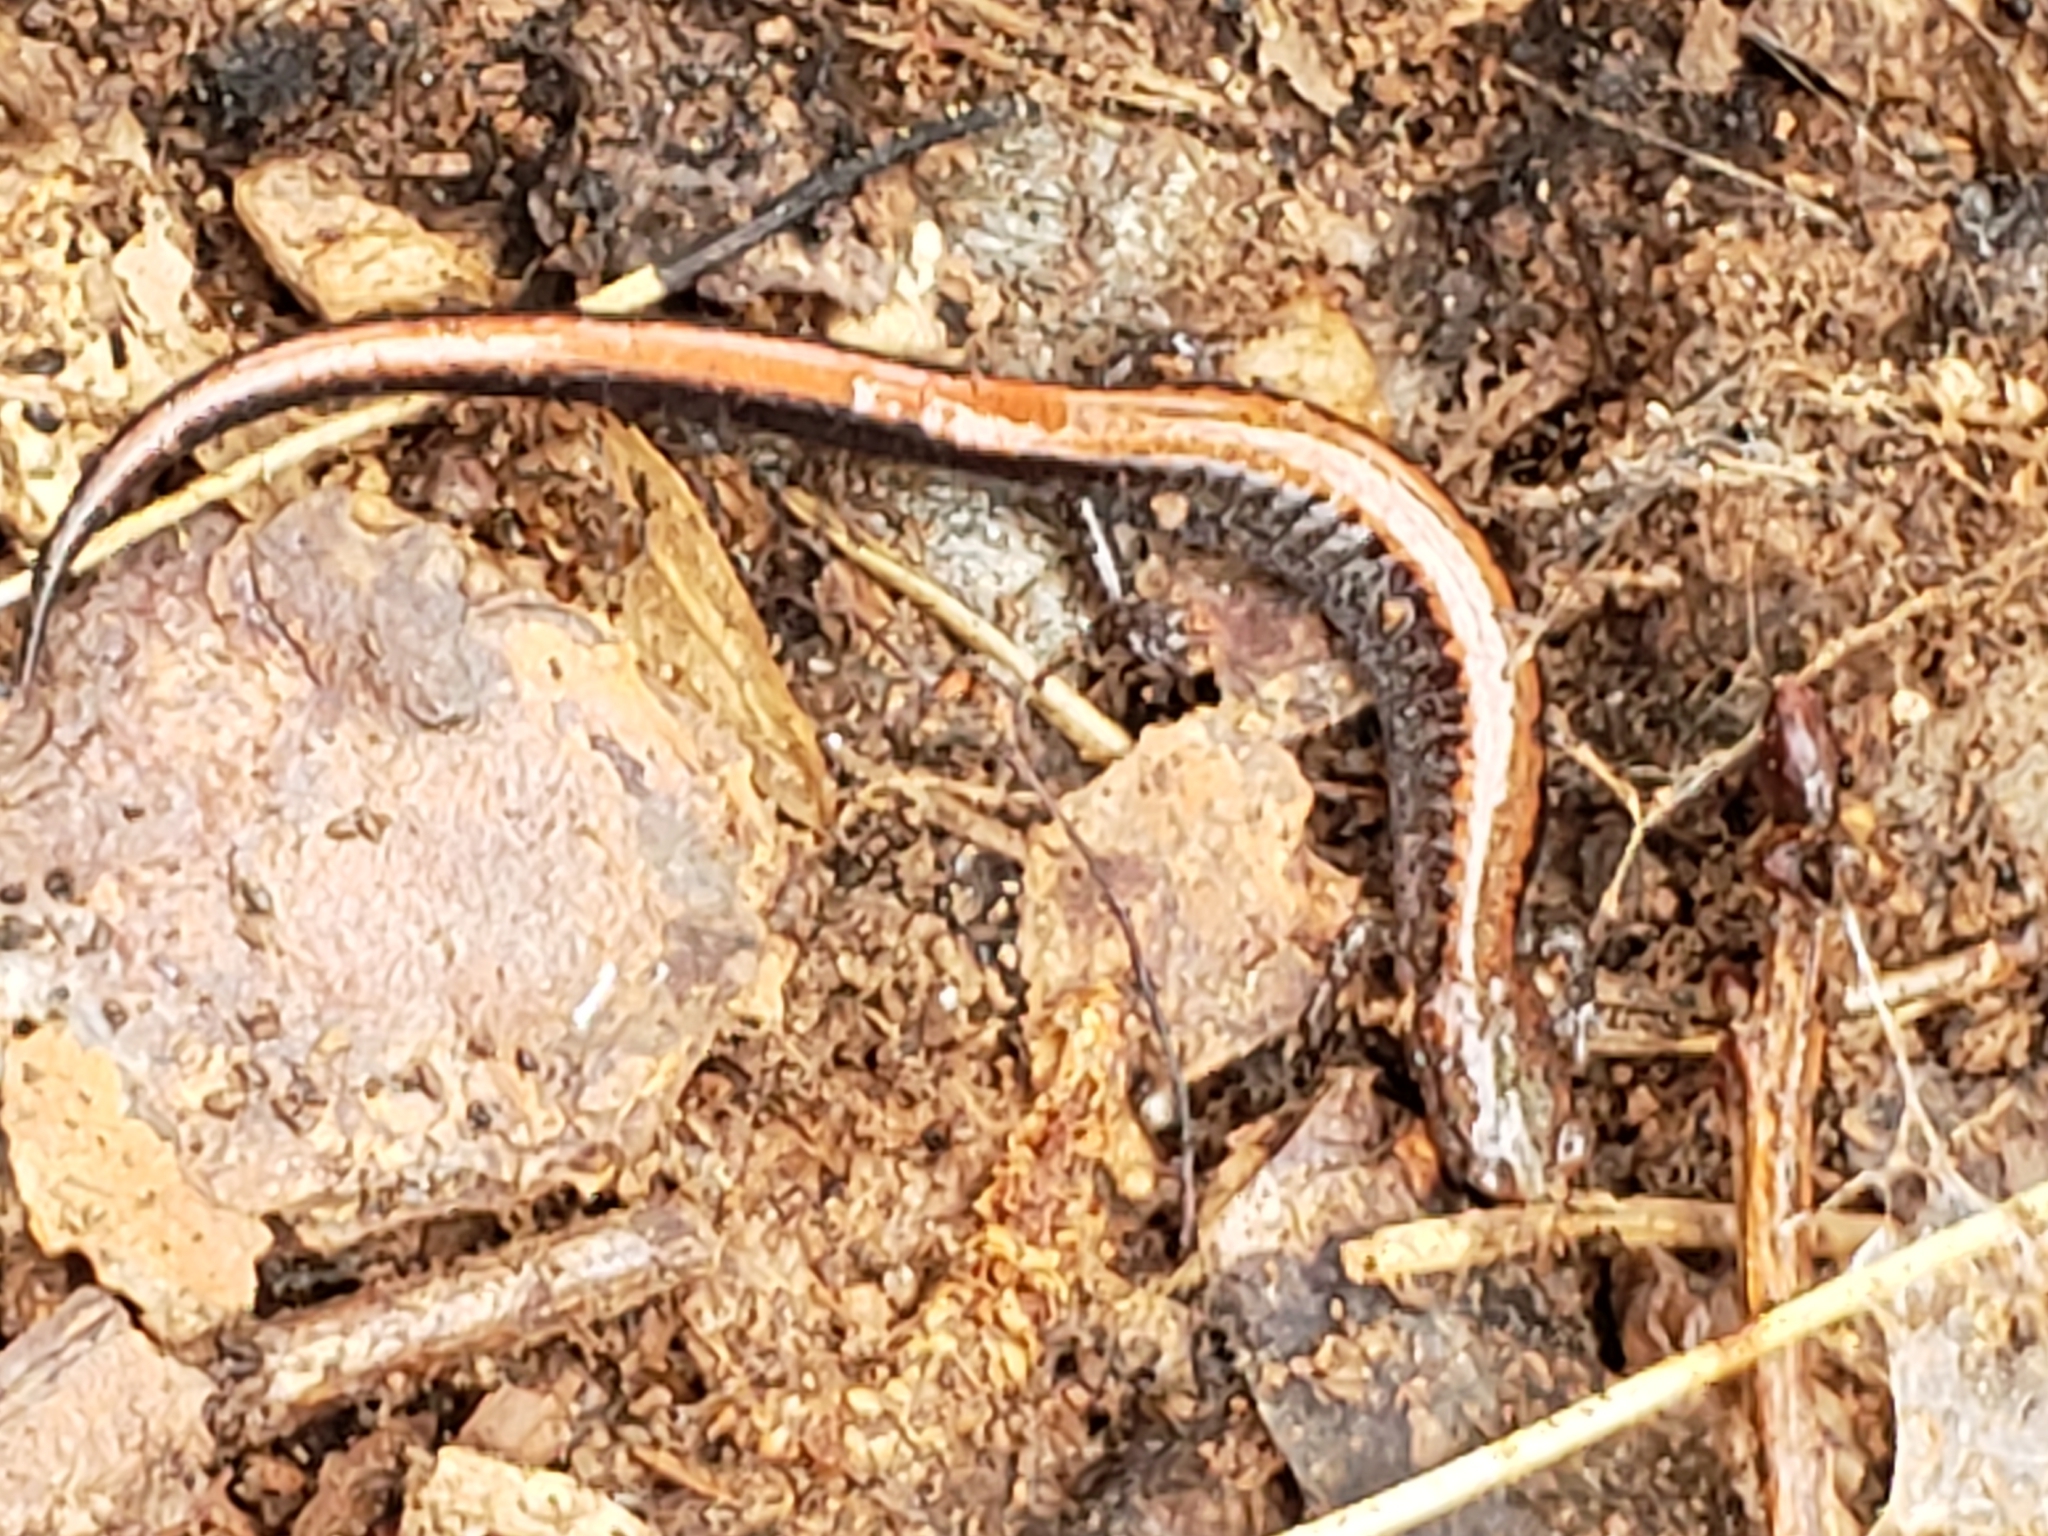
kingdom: Animalia
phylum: Chordata
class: Amphibia
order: Caudata
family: Plethodontidae
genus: Plethodon
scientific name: Plethodon cinereus
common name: Redback salamander
